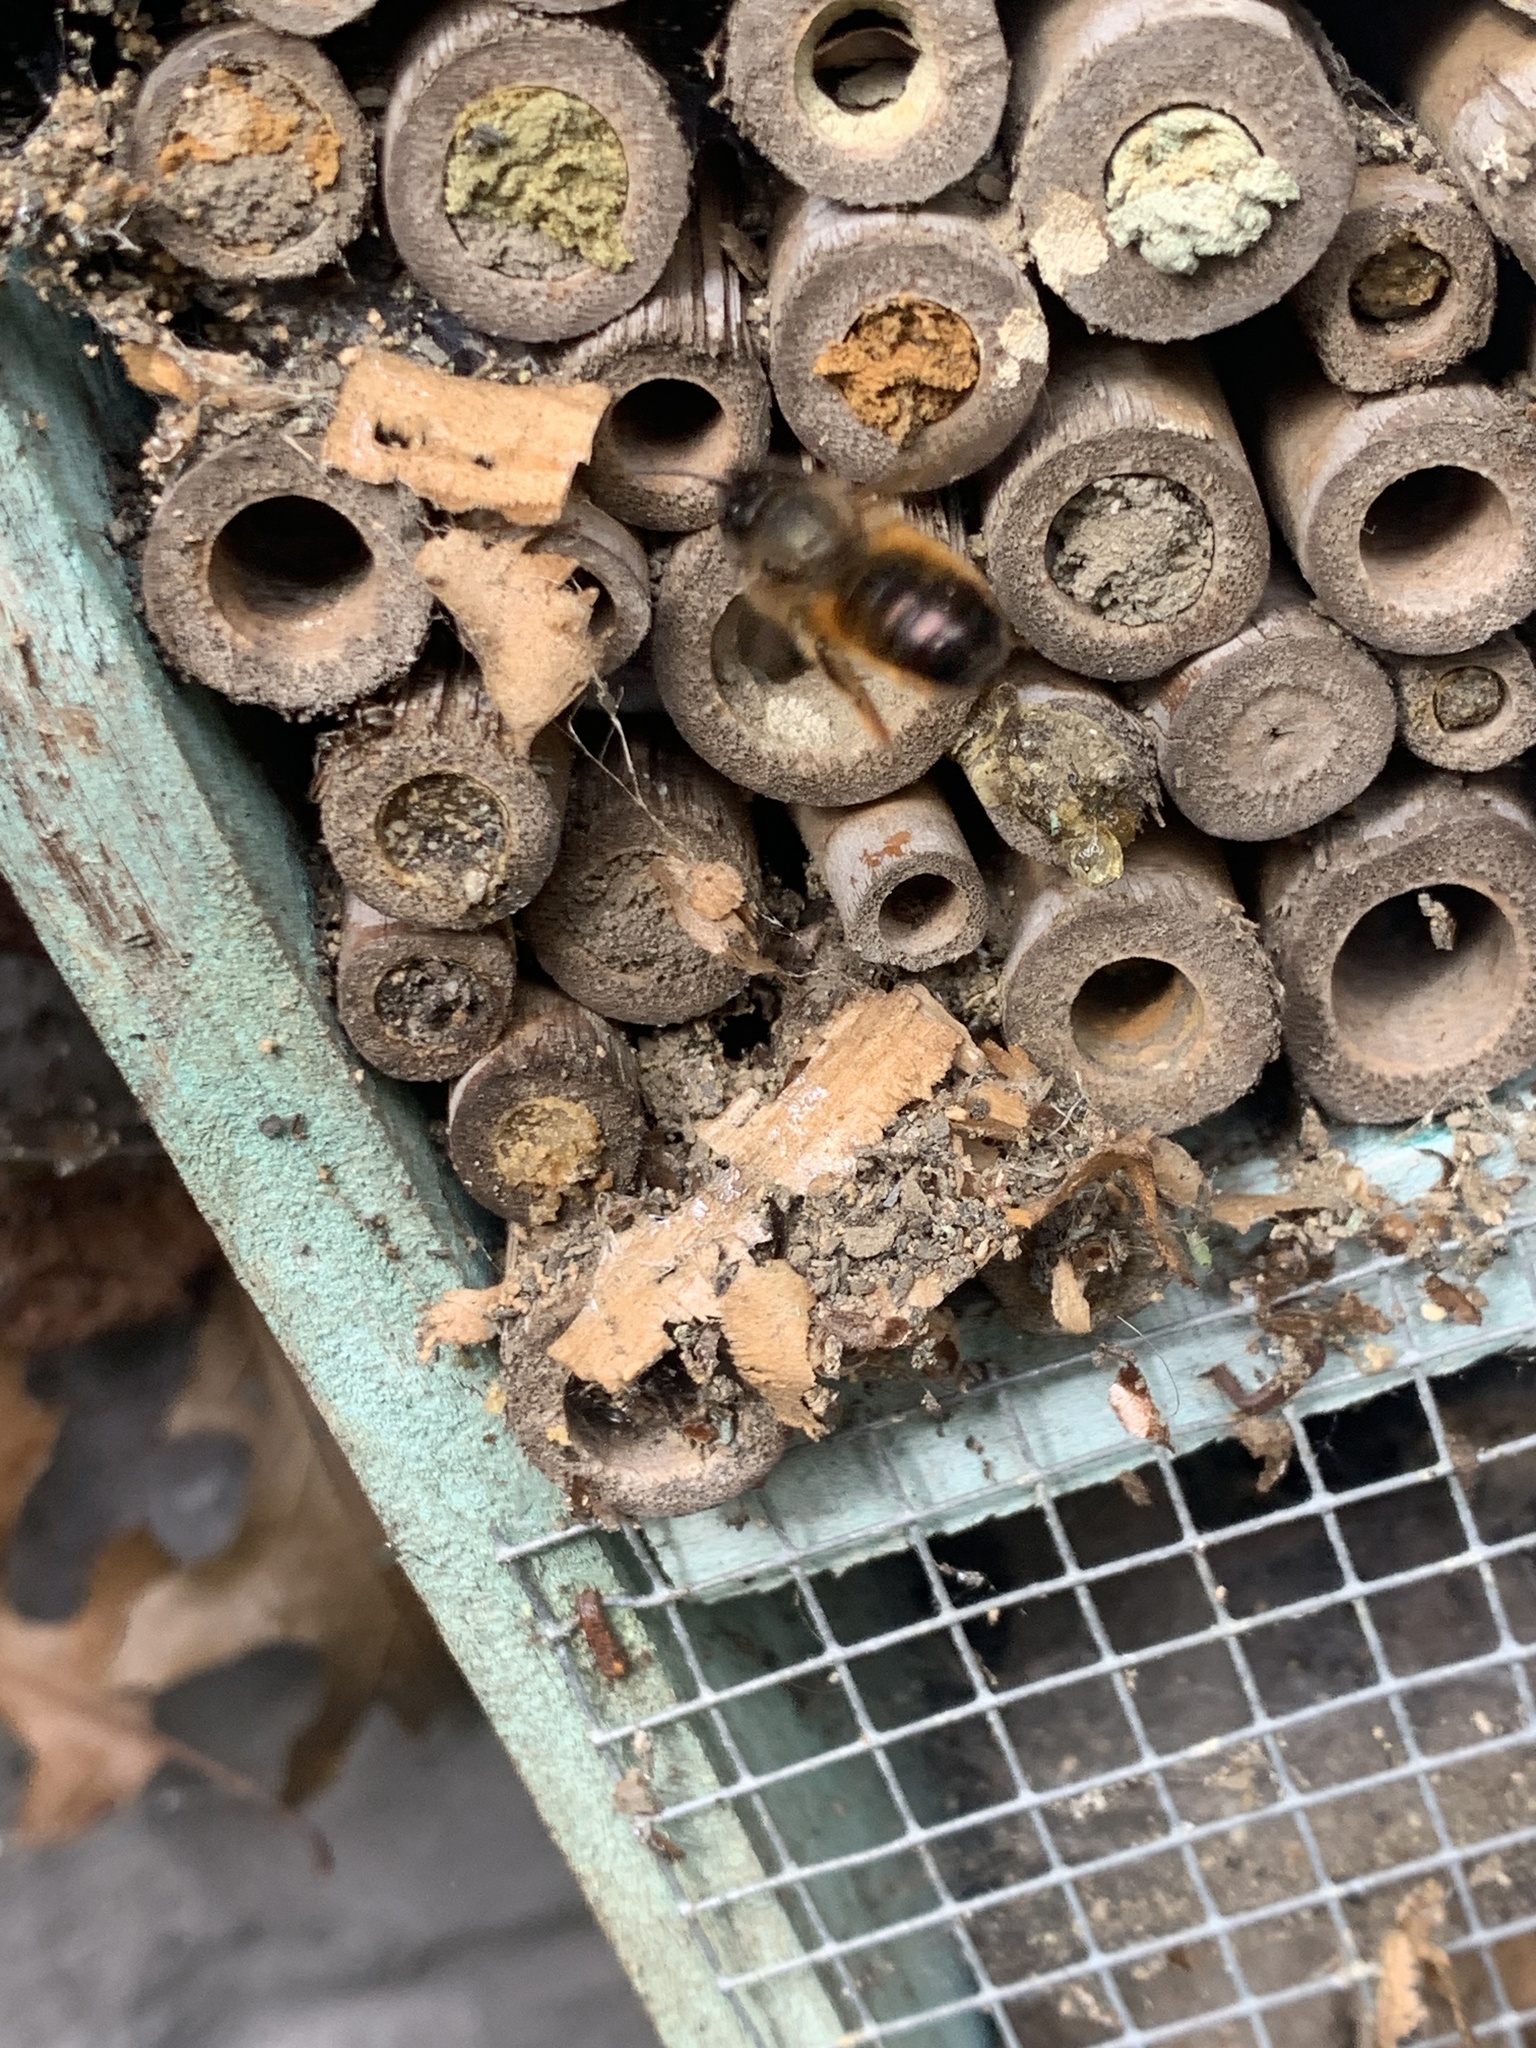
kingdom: Animalia
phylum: Arthropoda
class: Insecta
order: Hymenoptera
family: Megachilidae
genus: Osmia
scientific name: Osmia bicornis
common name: Red mason bee
